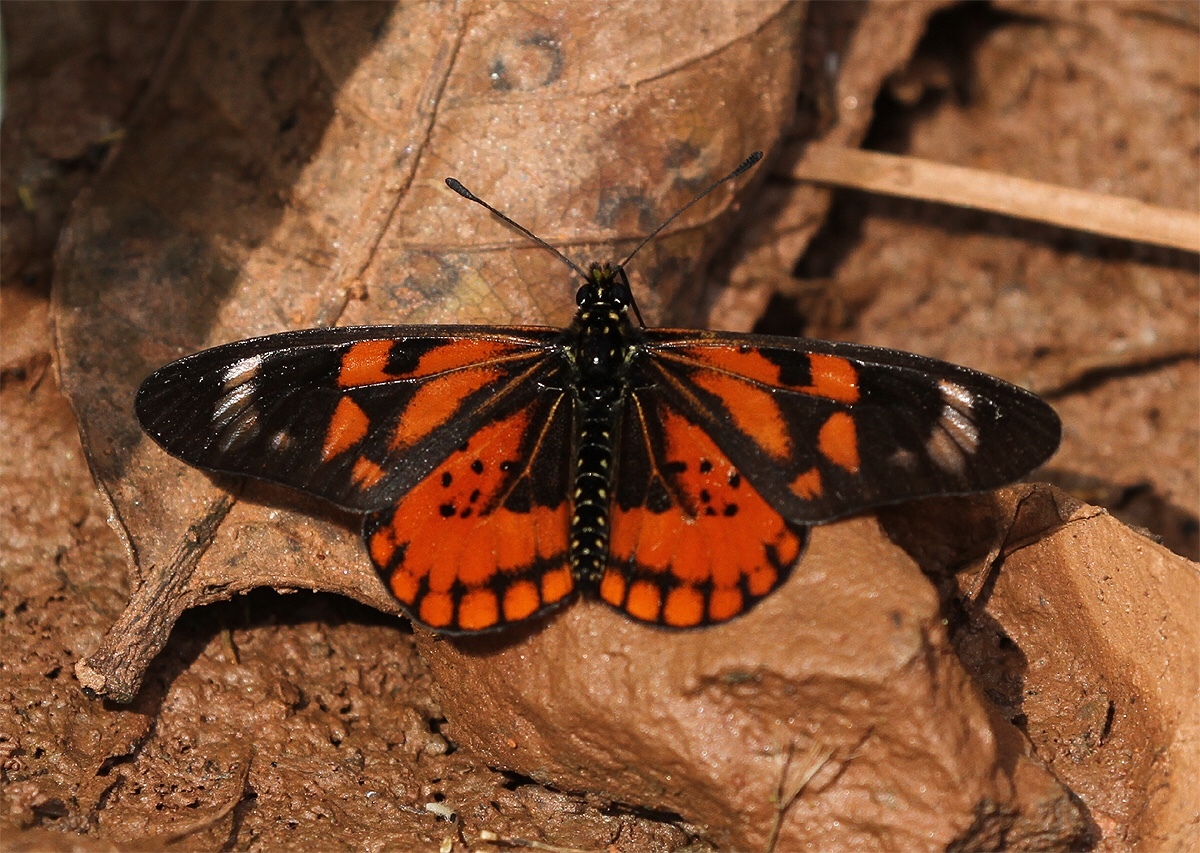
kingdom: Animalia
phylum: Arthropoda
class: Insecta
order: Lepidoptera
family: Nymphalidae
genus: Acraea
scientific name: Acraea
